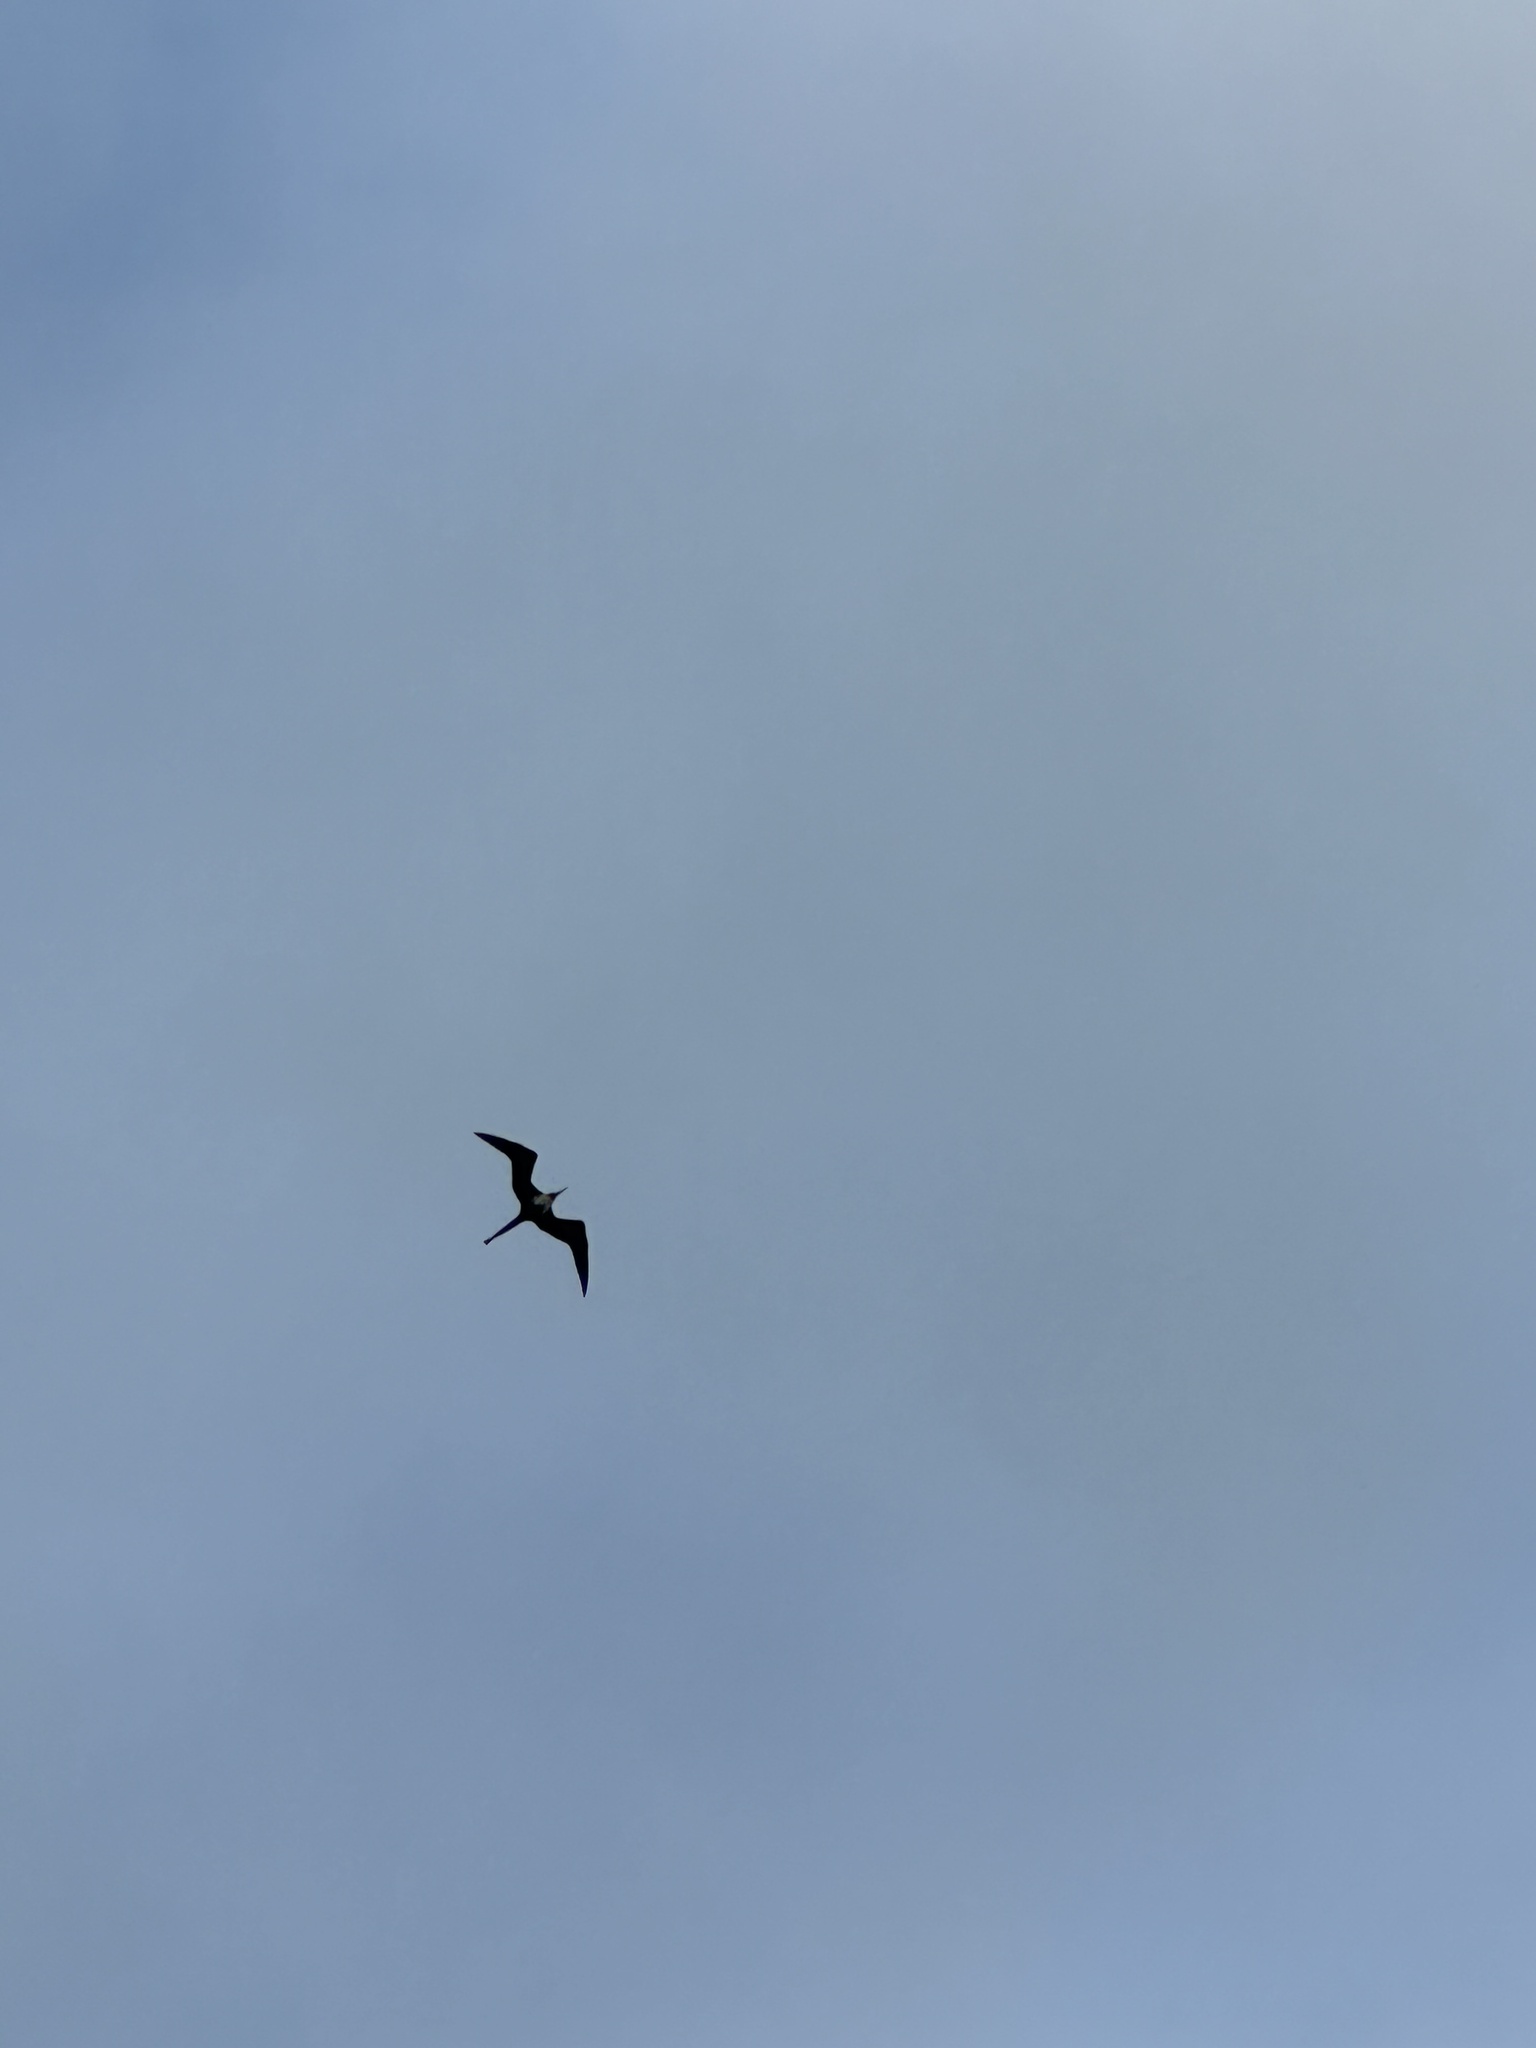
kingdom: Animalia
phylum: Chordata
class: Aves
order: Suliformes
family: Fregatidae
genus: Fregata
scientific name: Fregata magnificens
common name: Magnificent frigatebird
